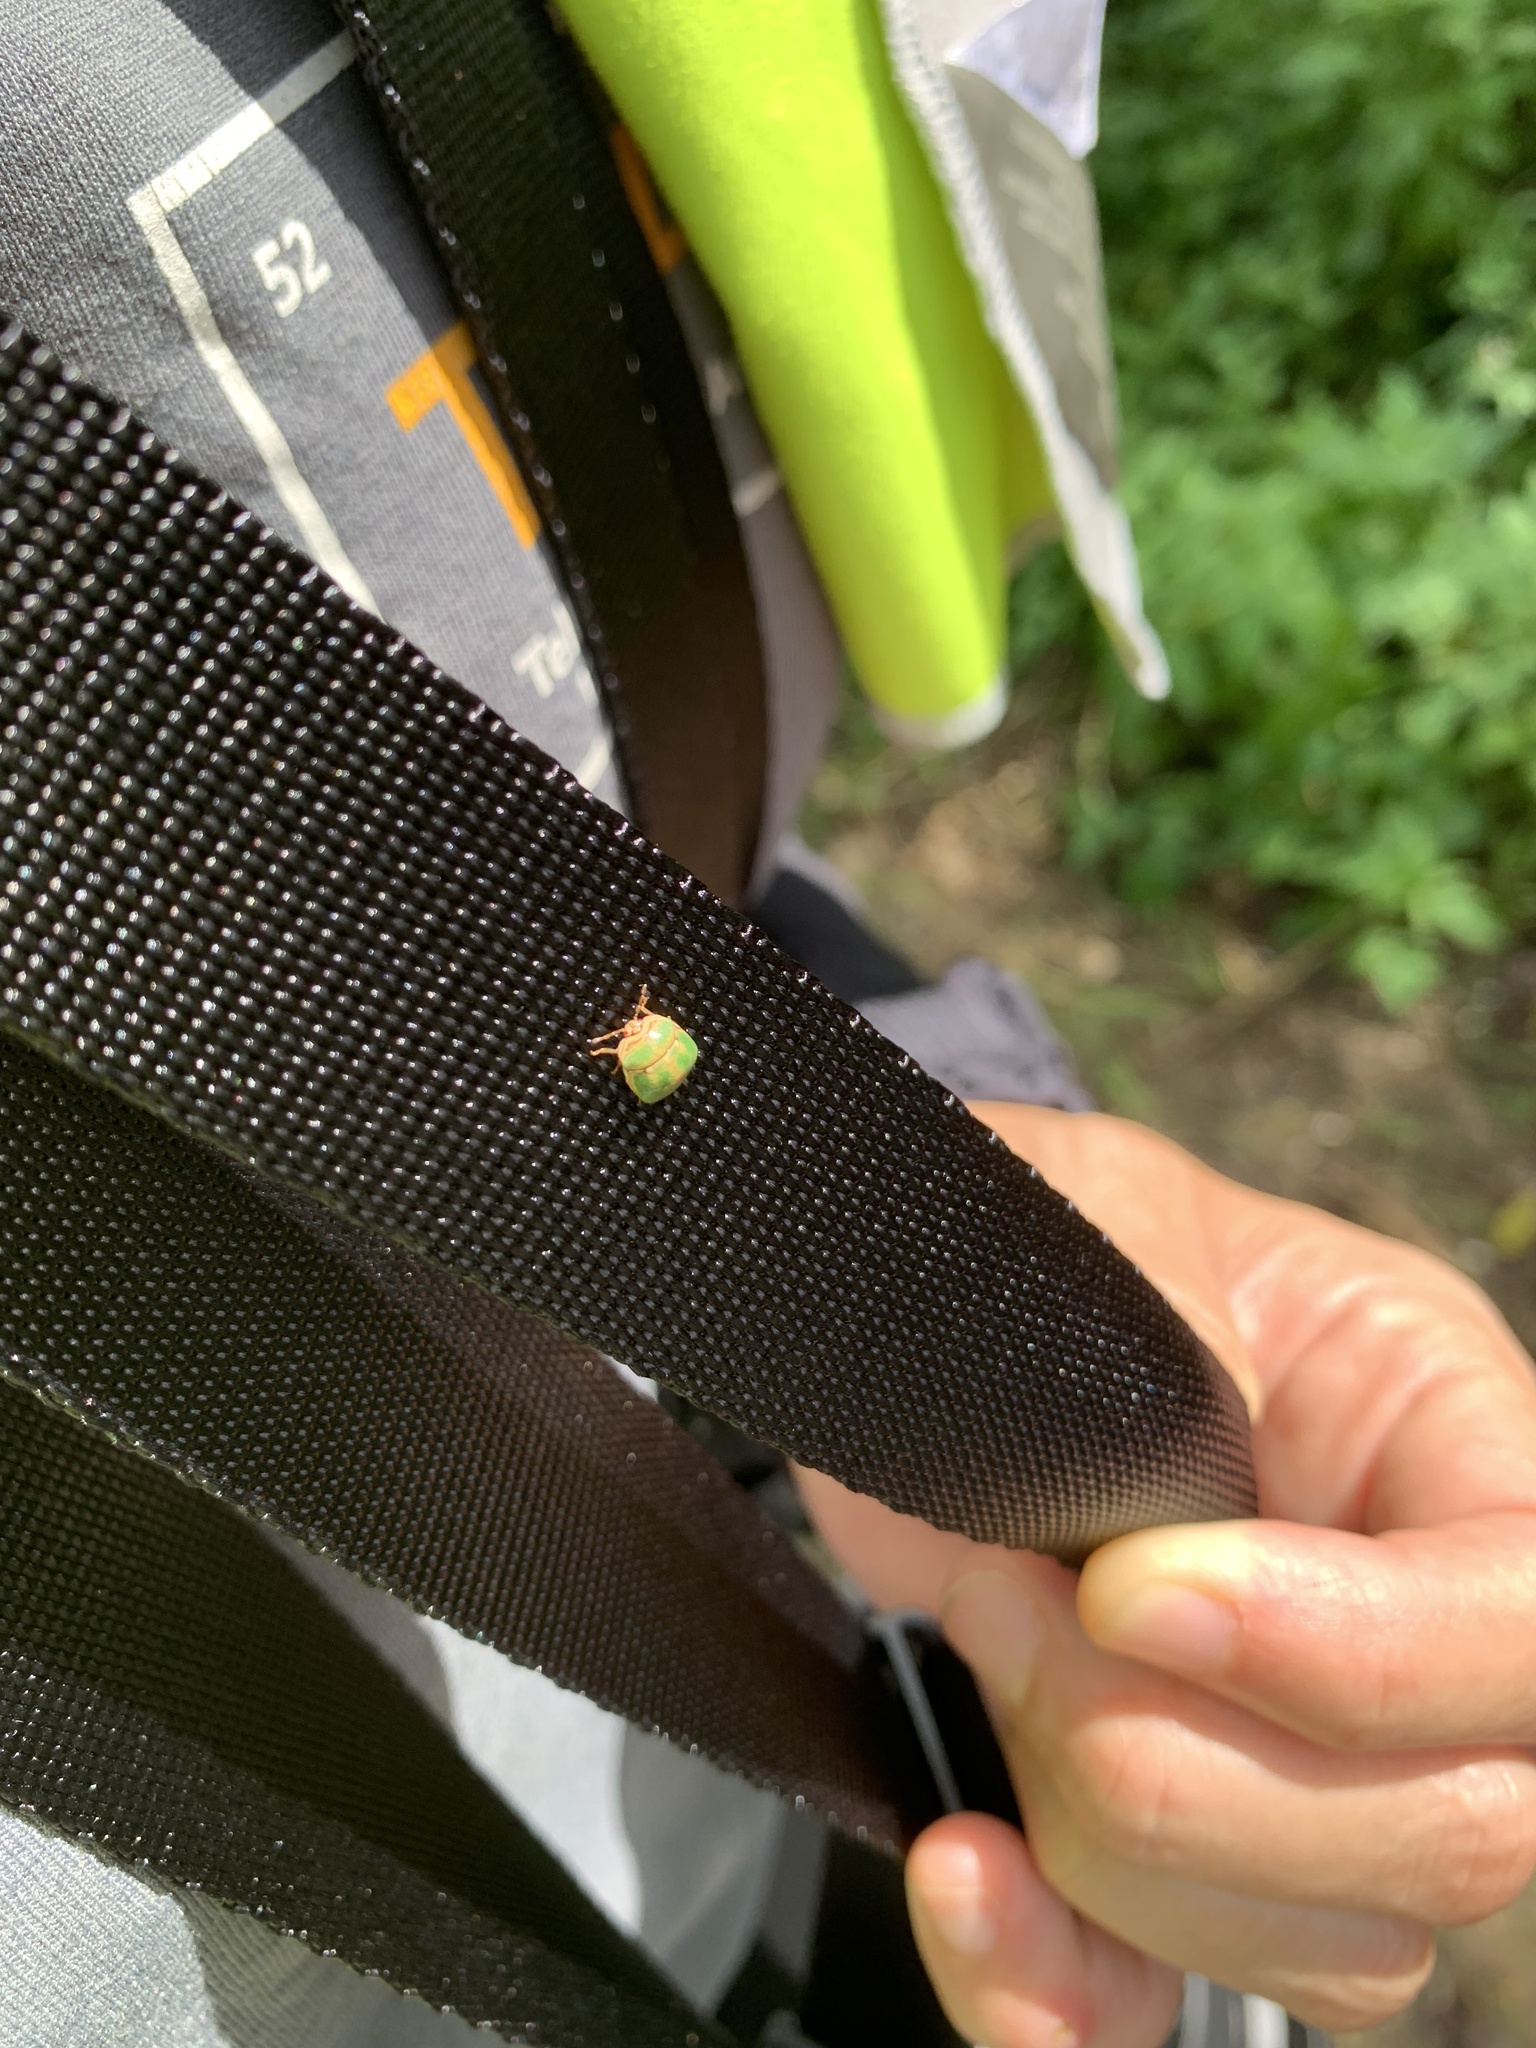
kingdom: Animalia
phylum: Arthropoda
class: Insecta
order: Hemiptera
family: Plataspidae
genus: Megacopta
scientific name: Megacopta cribraria
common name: Bean plataspid
